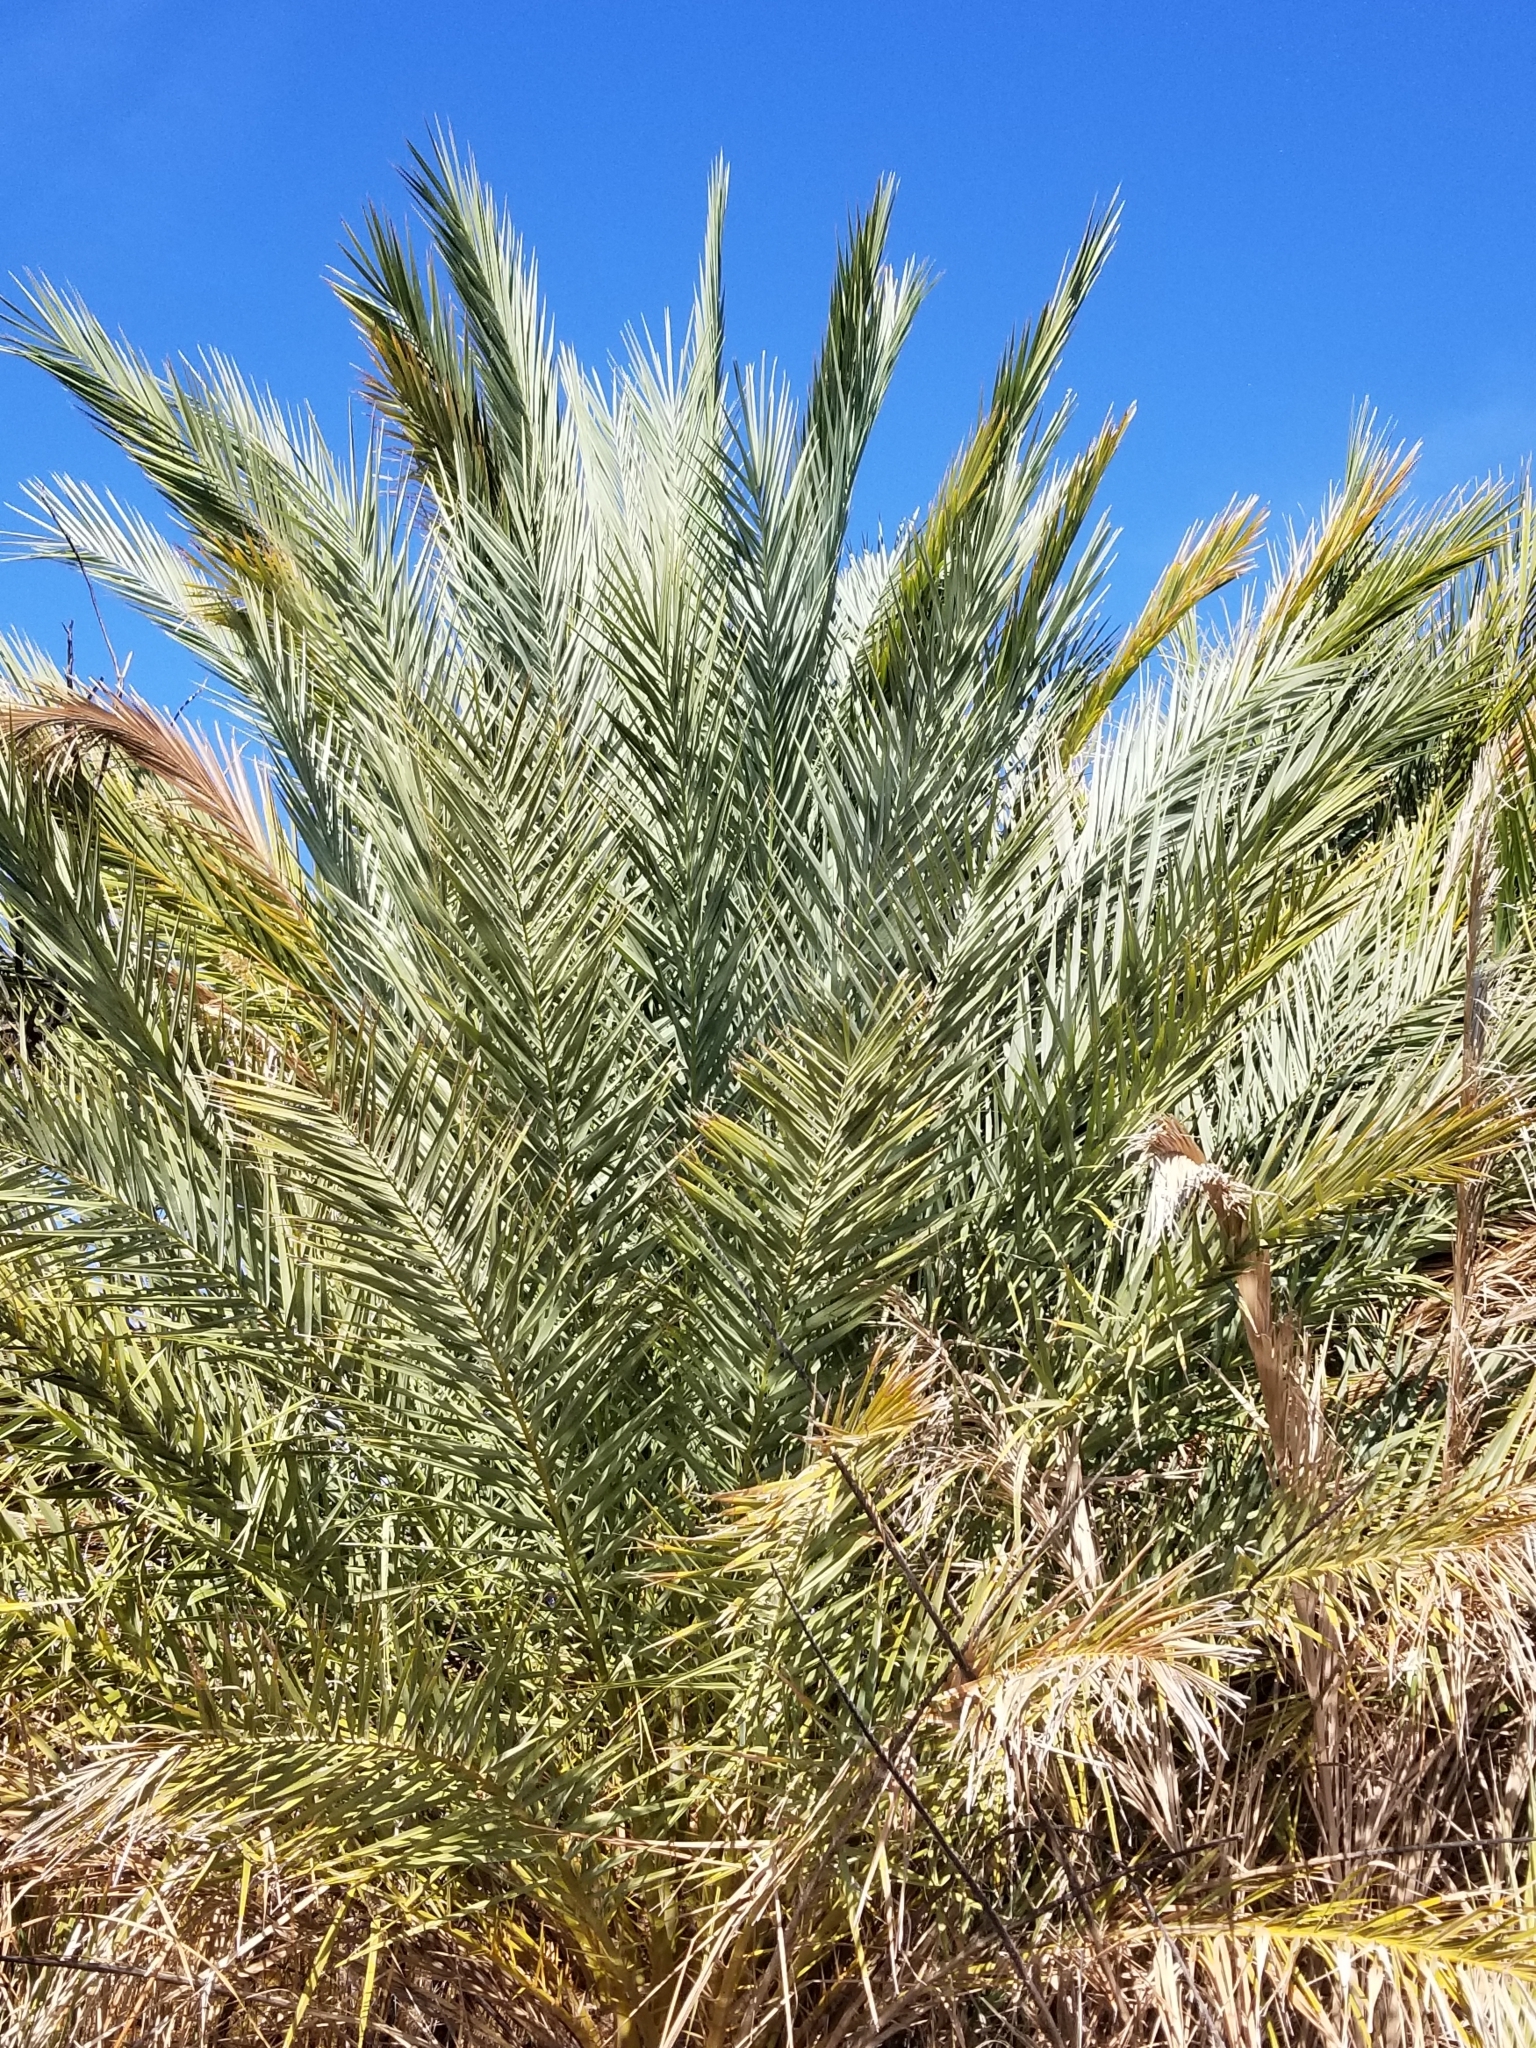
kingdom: Plantae
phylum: Tracheophyta
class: Liliopsida
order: Arecales
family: Arecaceae
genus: Phoenix
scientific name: Phoenix dactylifera
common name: Date palm
